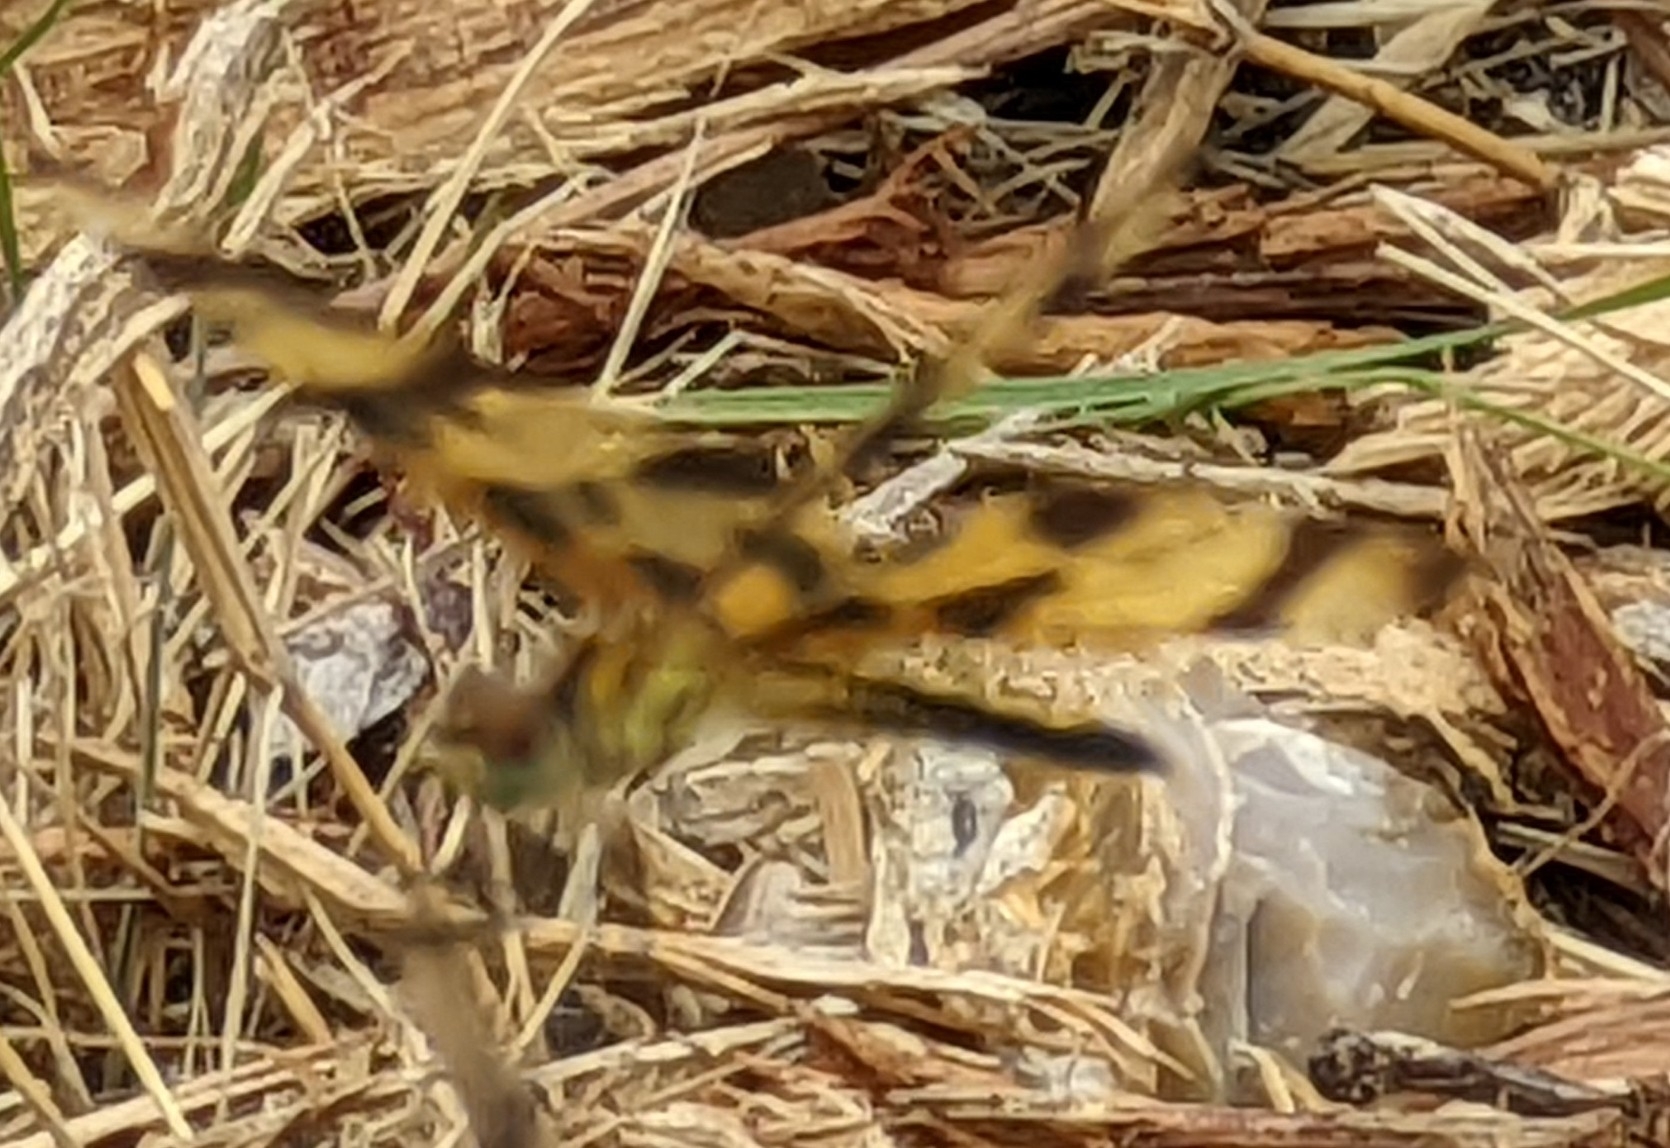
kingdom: Animalia
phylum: Arthropoda
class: Insecta
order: Odonata
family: Libellulidae
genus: Celithemis
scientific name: Celithemis eponina
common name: Halloween pennant
